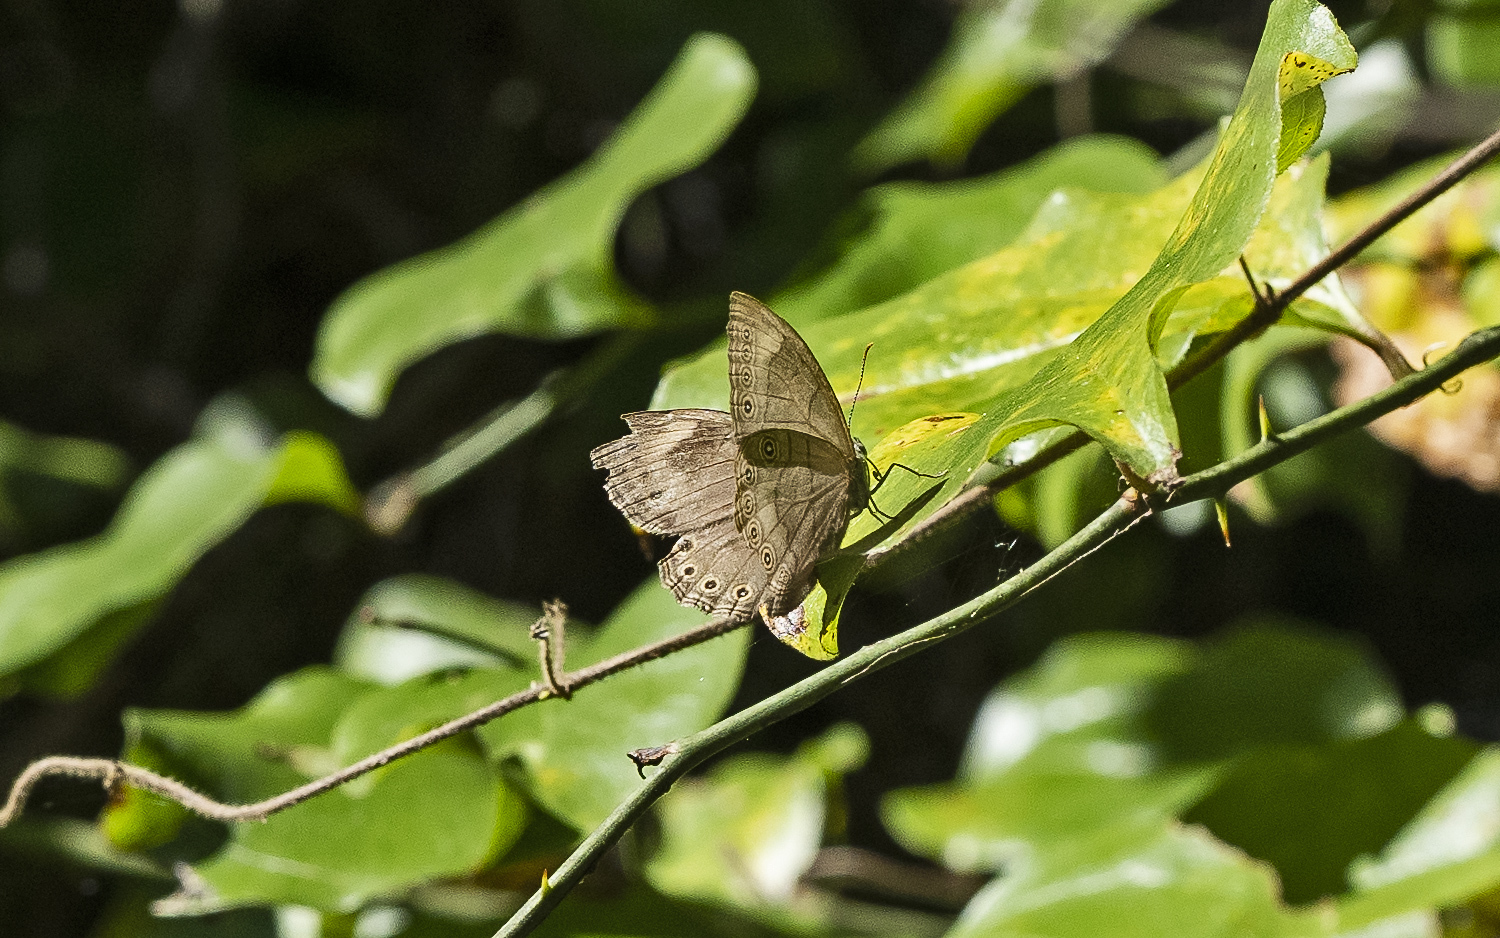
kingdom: Animalia
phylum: Arthropoda
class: Insecta
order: Lepidoptera
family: Nymphalidae
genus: Lethe
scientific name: Lethe eurydice
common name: Eyed brown
